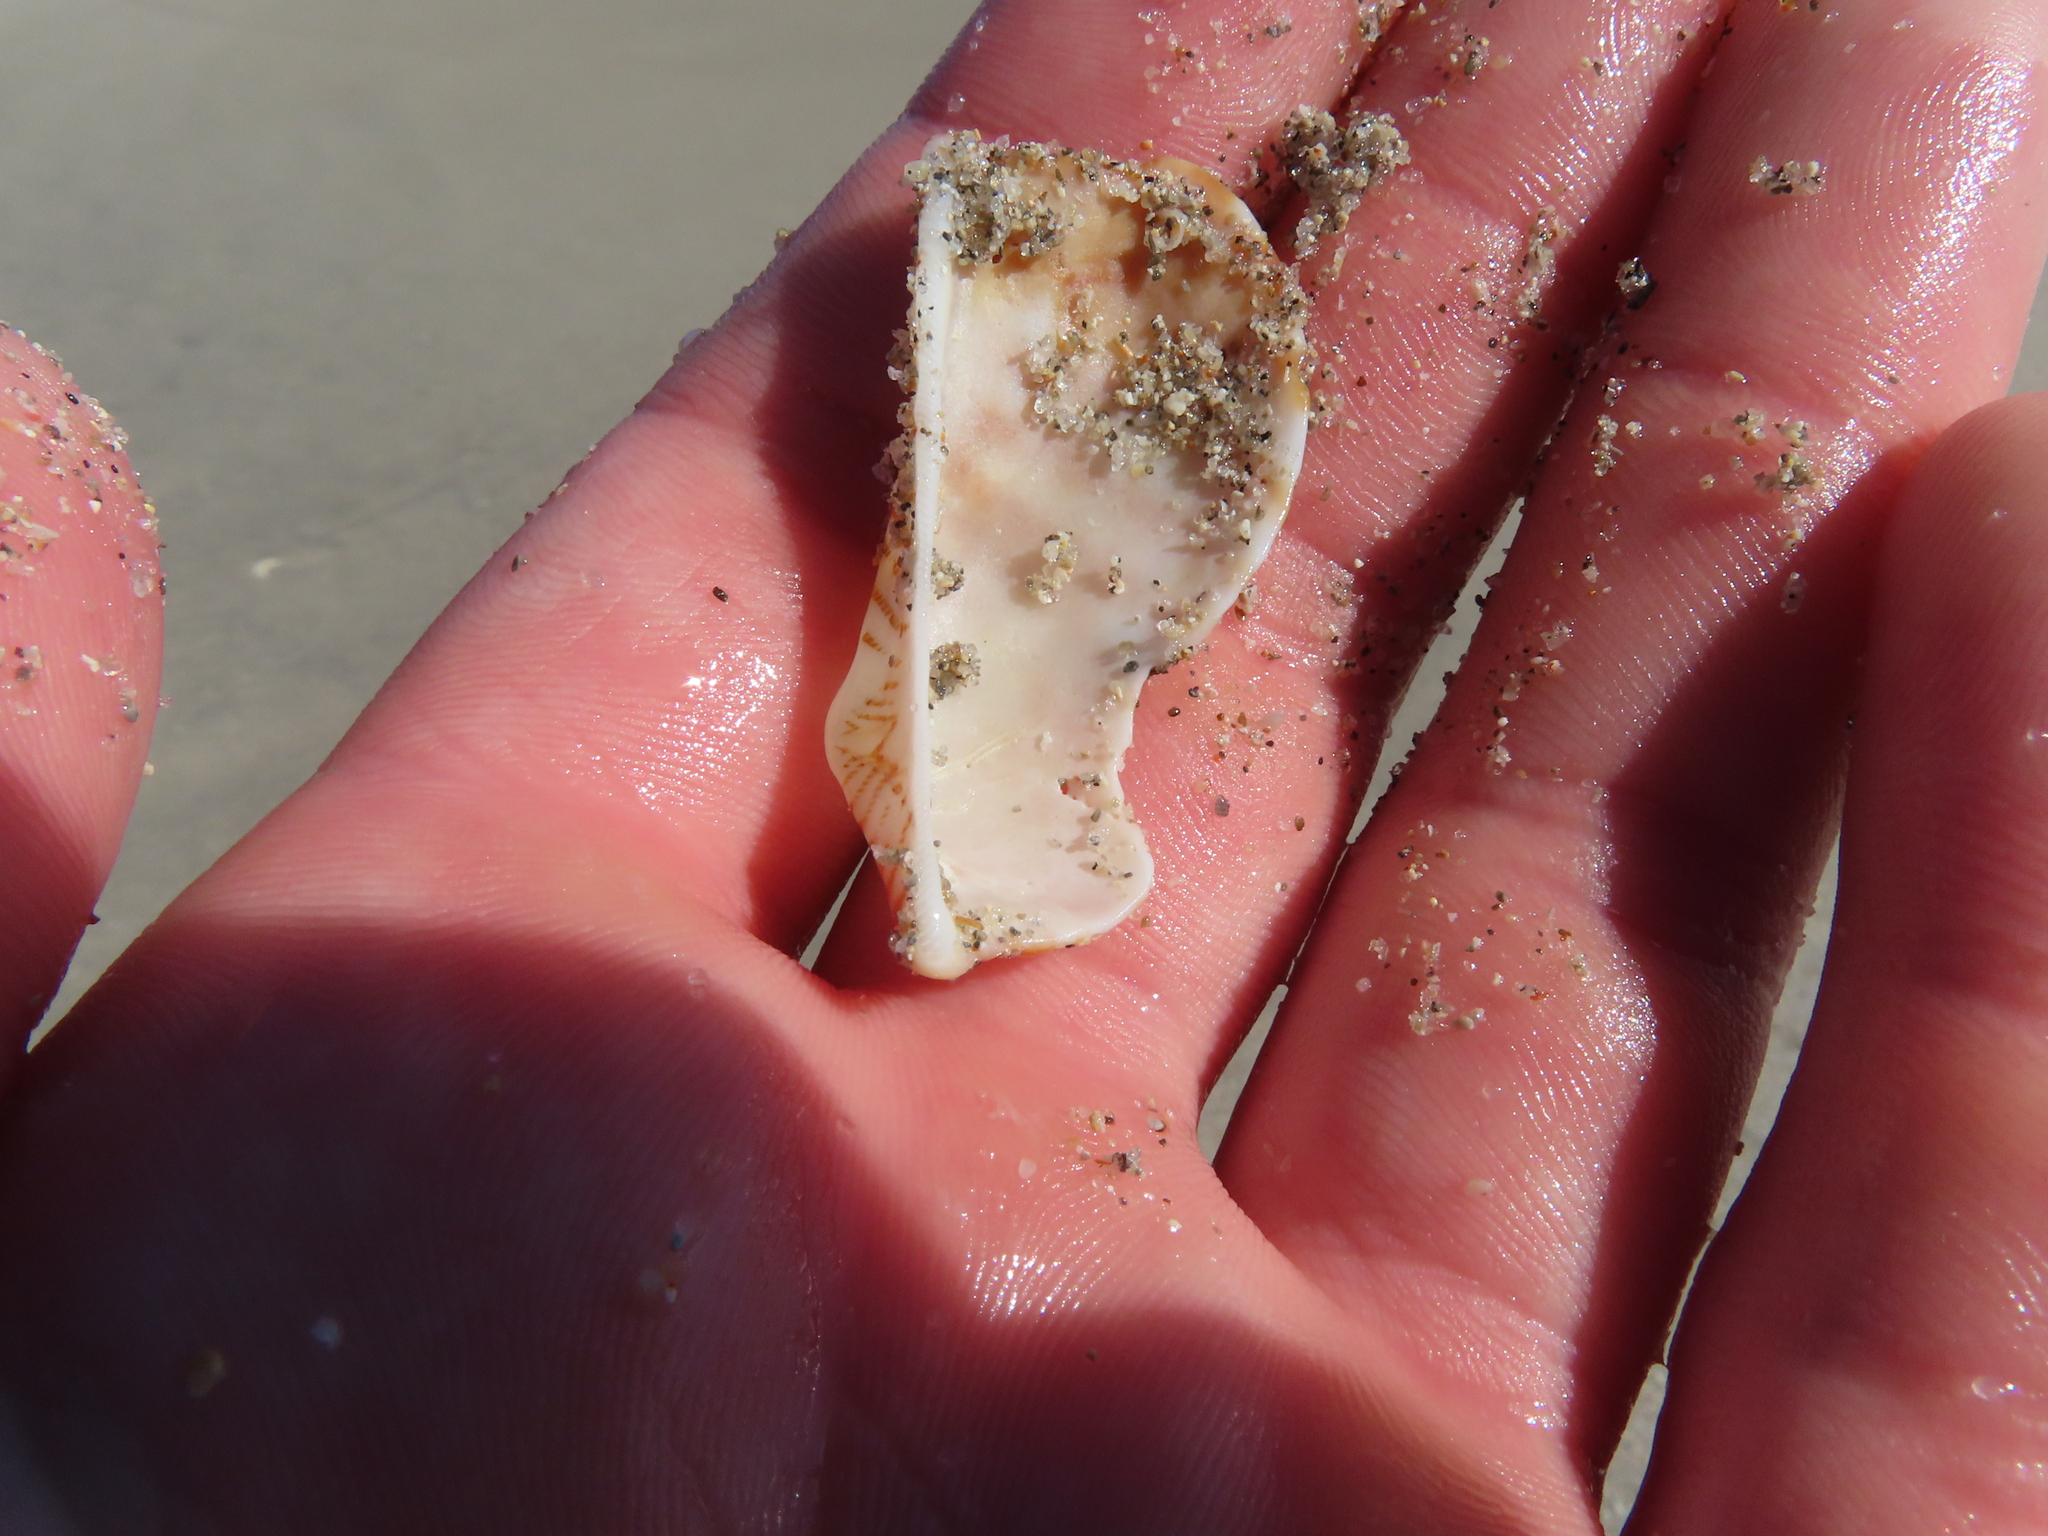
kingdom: Animalia
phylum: Mollusca
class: Bivalvia
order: Arcida
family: Arcidae
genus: Arca
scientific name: Arca zebra
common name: Atlantic turkey wing
